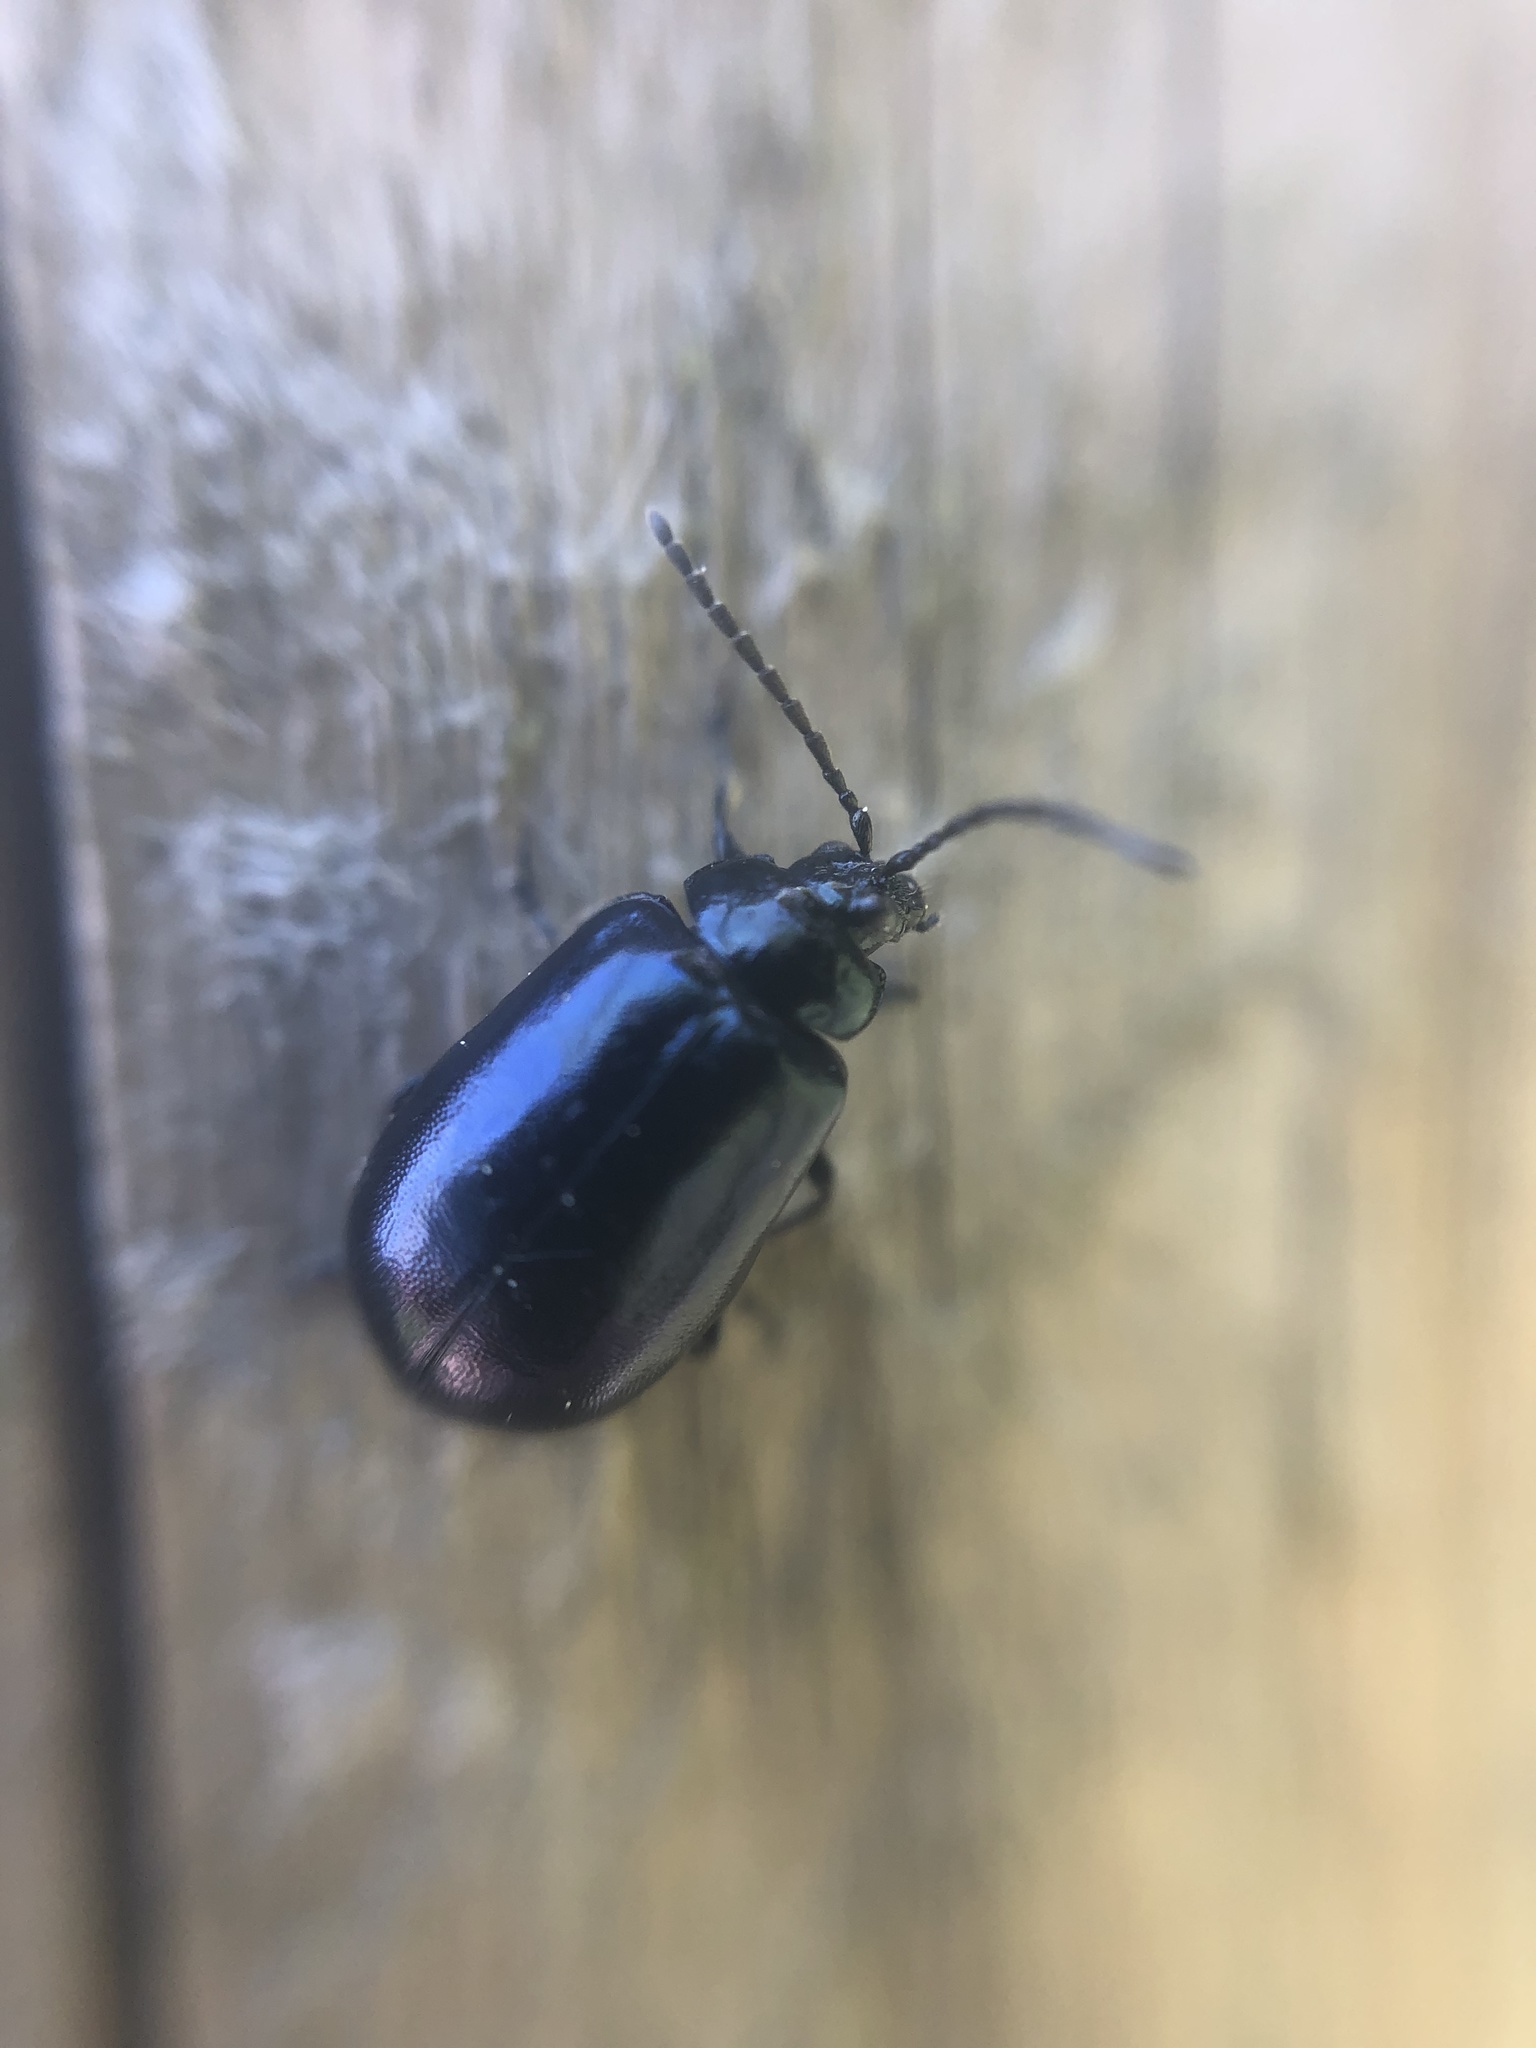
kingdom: Animalia
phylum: Arthropoda
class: Insecta
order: Coleoptera
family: Chrysomelidae
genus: Agelastica
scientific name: Agelastica alni
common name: Alder leaf beetle
